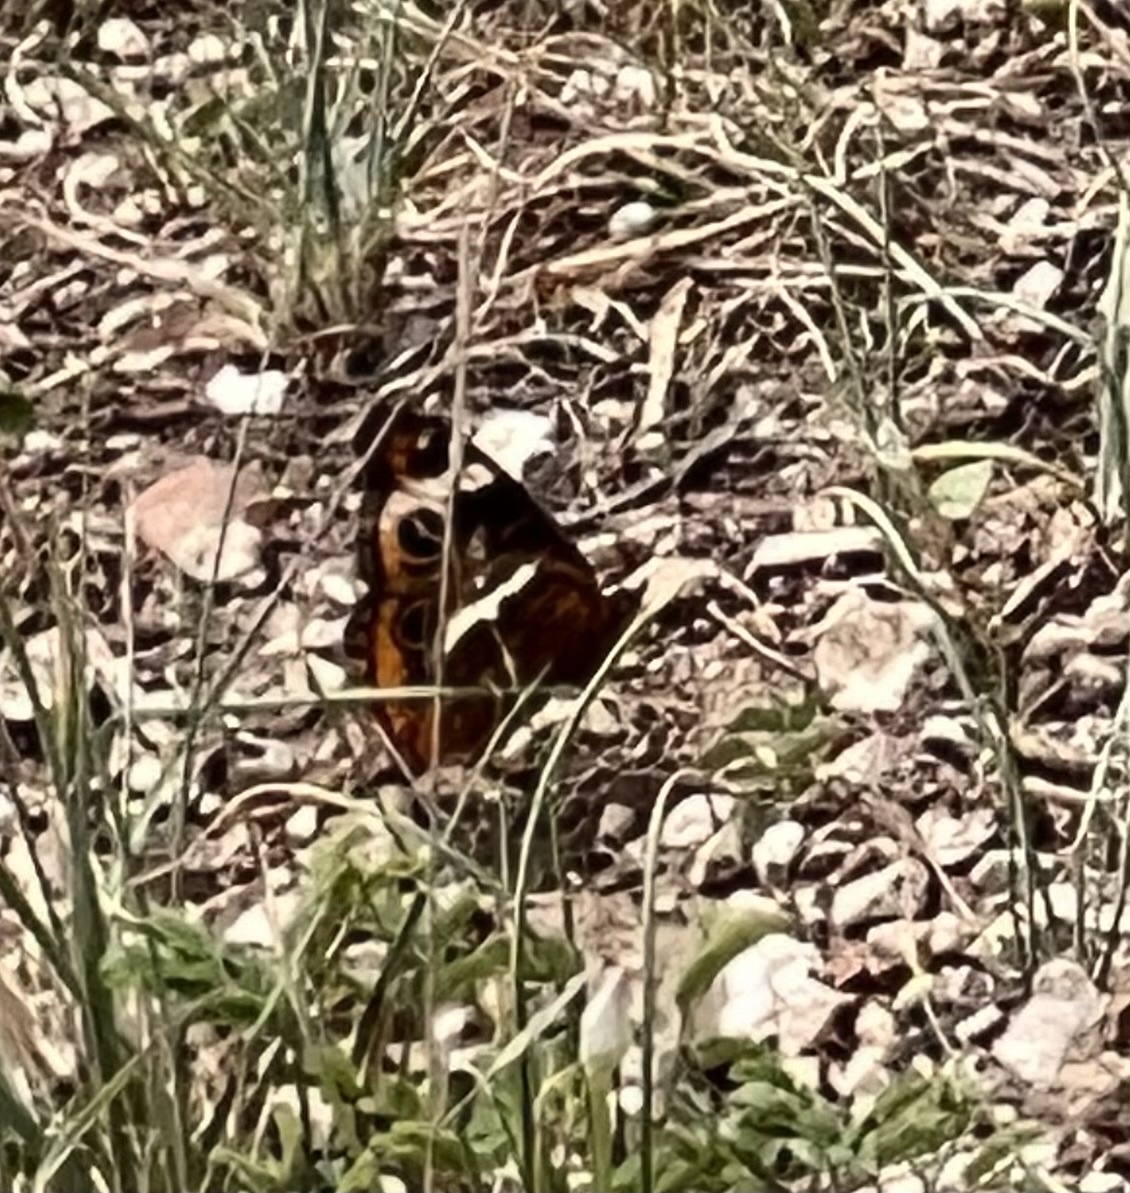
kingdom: Animalia
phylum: Arthropoda
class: Insecta
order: Lepidoptera
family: Nymphalidae
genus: Junonia
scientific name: Junonia coenia
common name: Common buckeye
